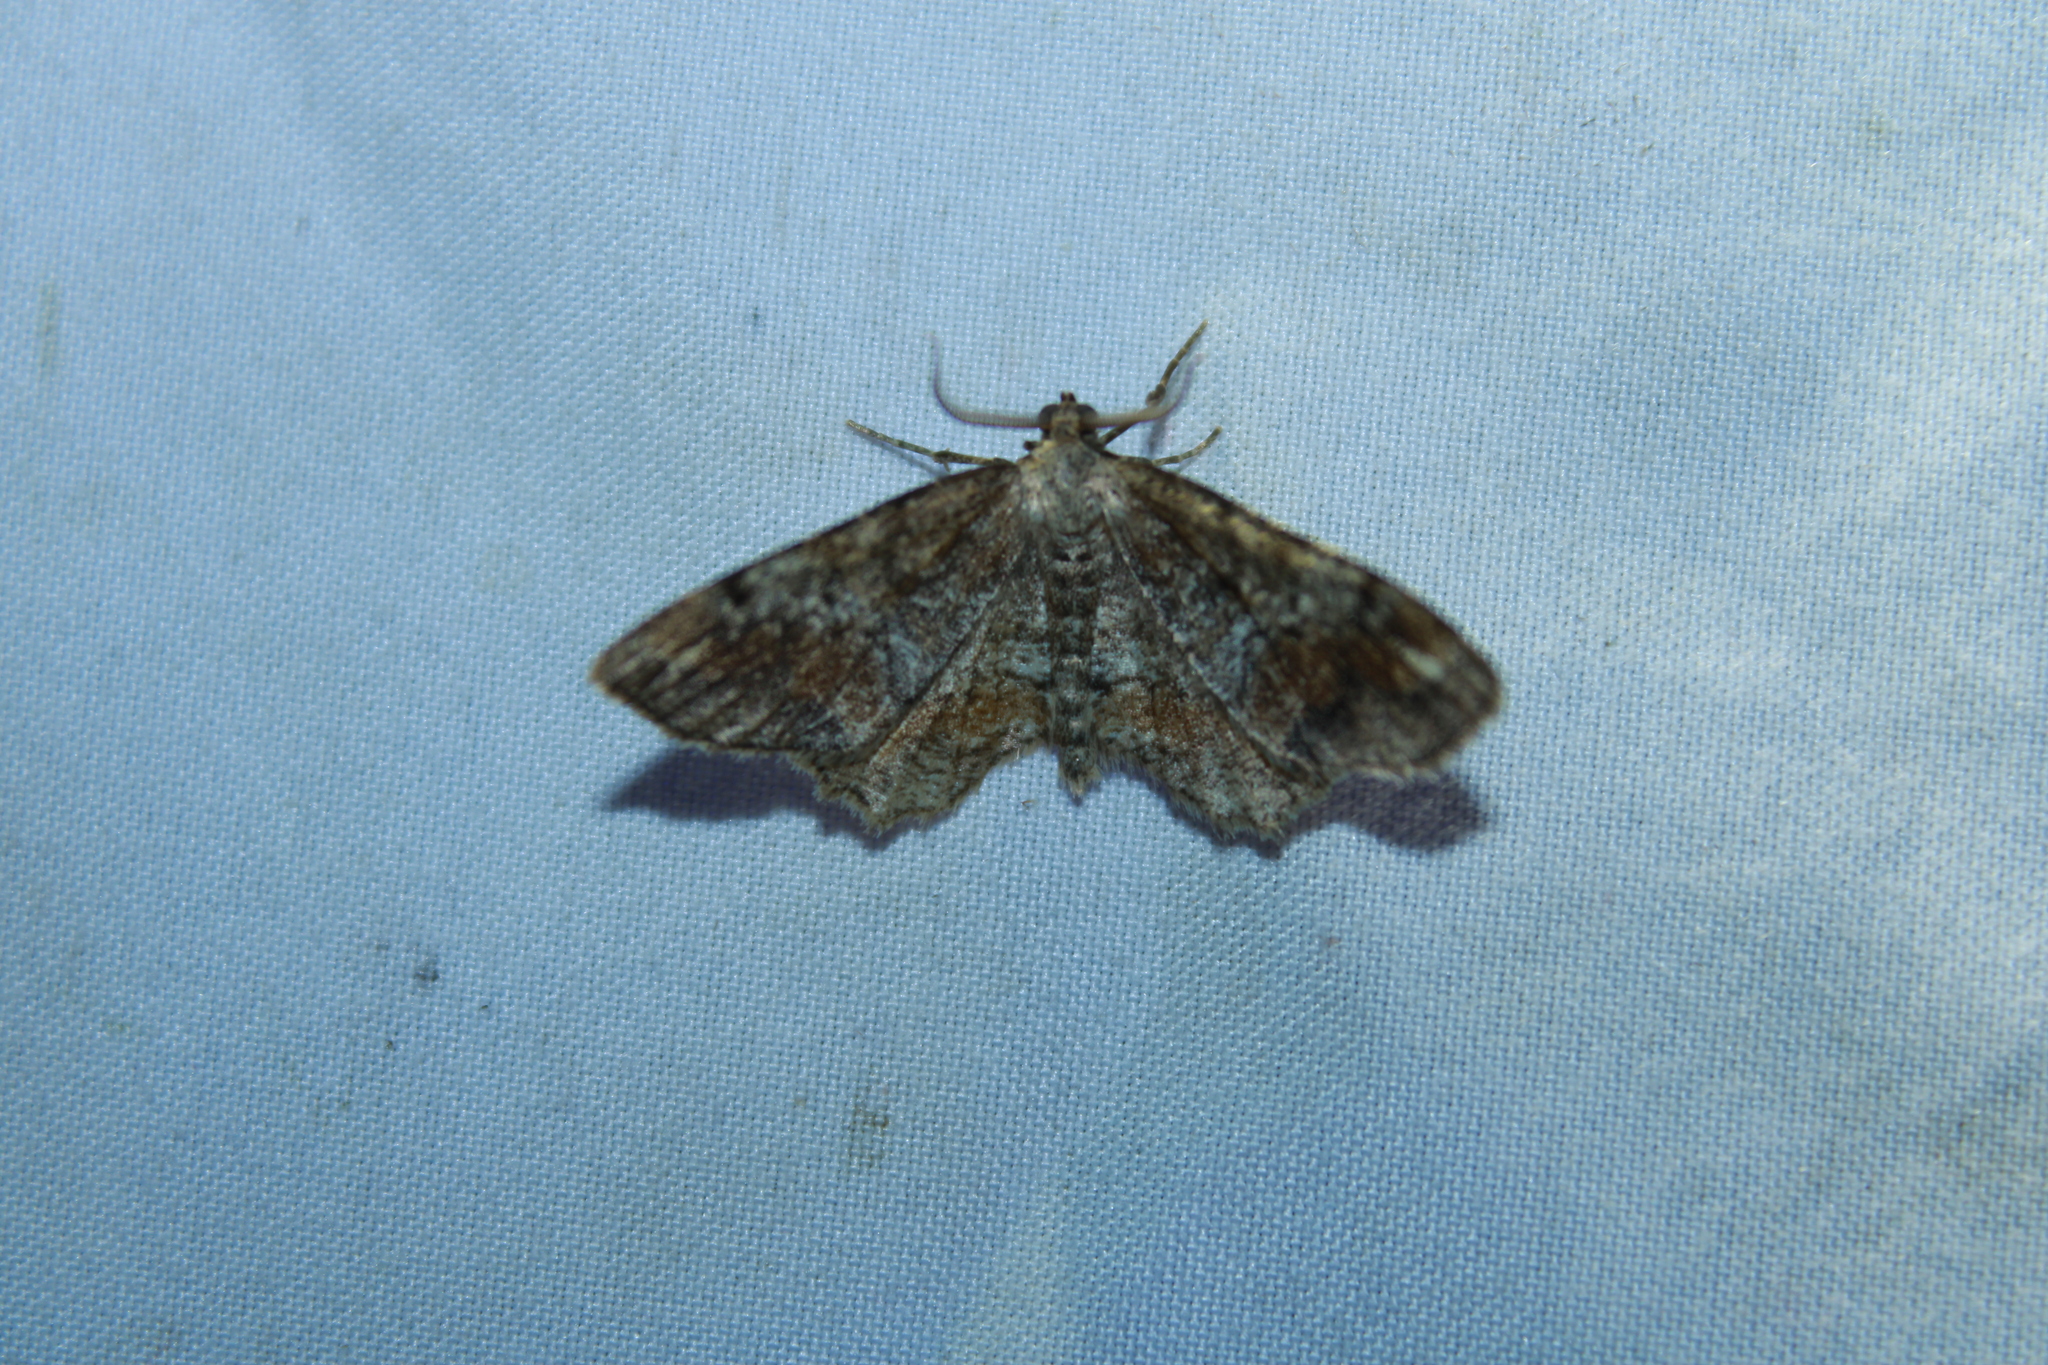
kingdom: Animalia
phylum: Arthropoda
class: Insecta
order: Lepidoptera
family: Geometridae
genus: Hypagyrtis
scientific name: Hypagyrtis unipunctata
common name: One-spotted variant
